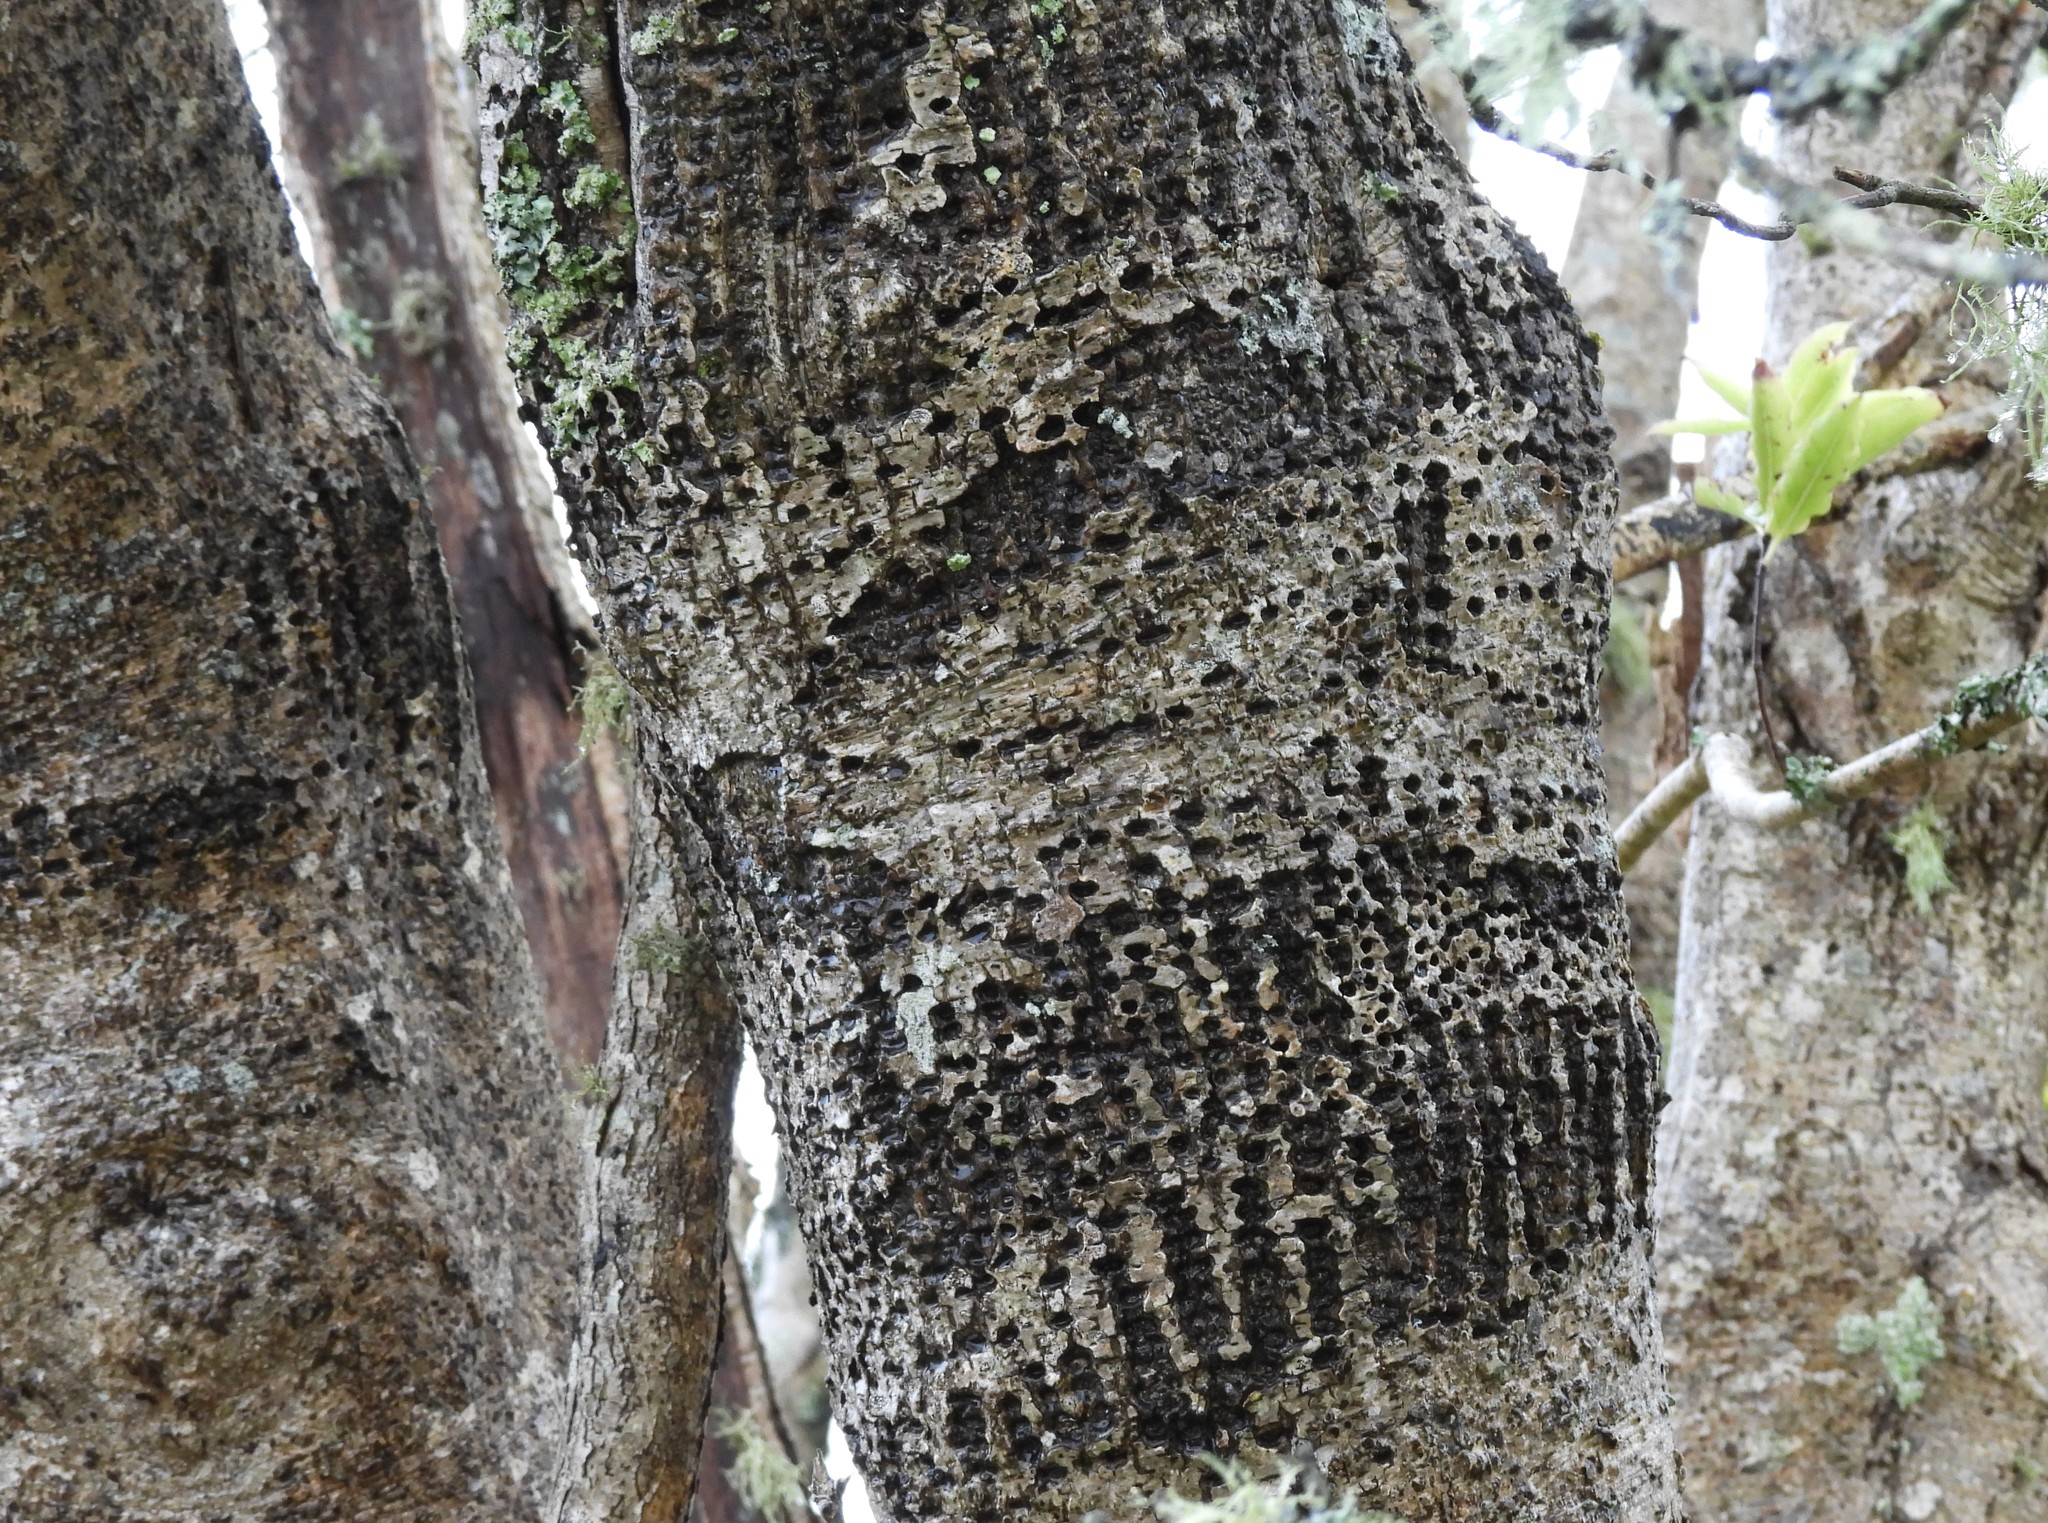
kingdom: Animalia
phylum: Chordata
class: Aves
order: Piciformes
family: Picidae
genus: Sphyrapicus
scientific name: Sphyrapicus
